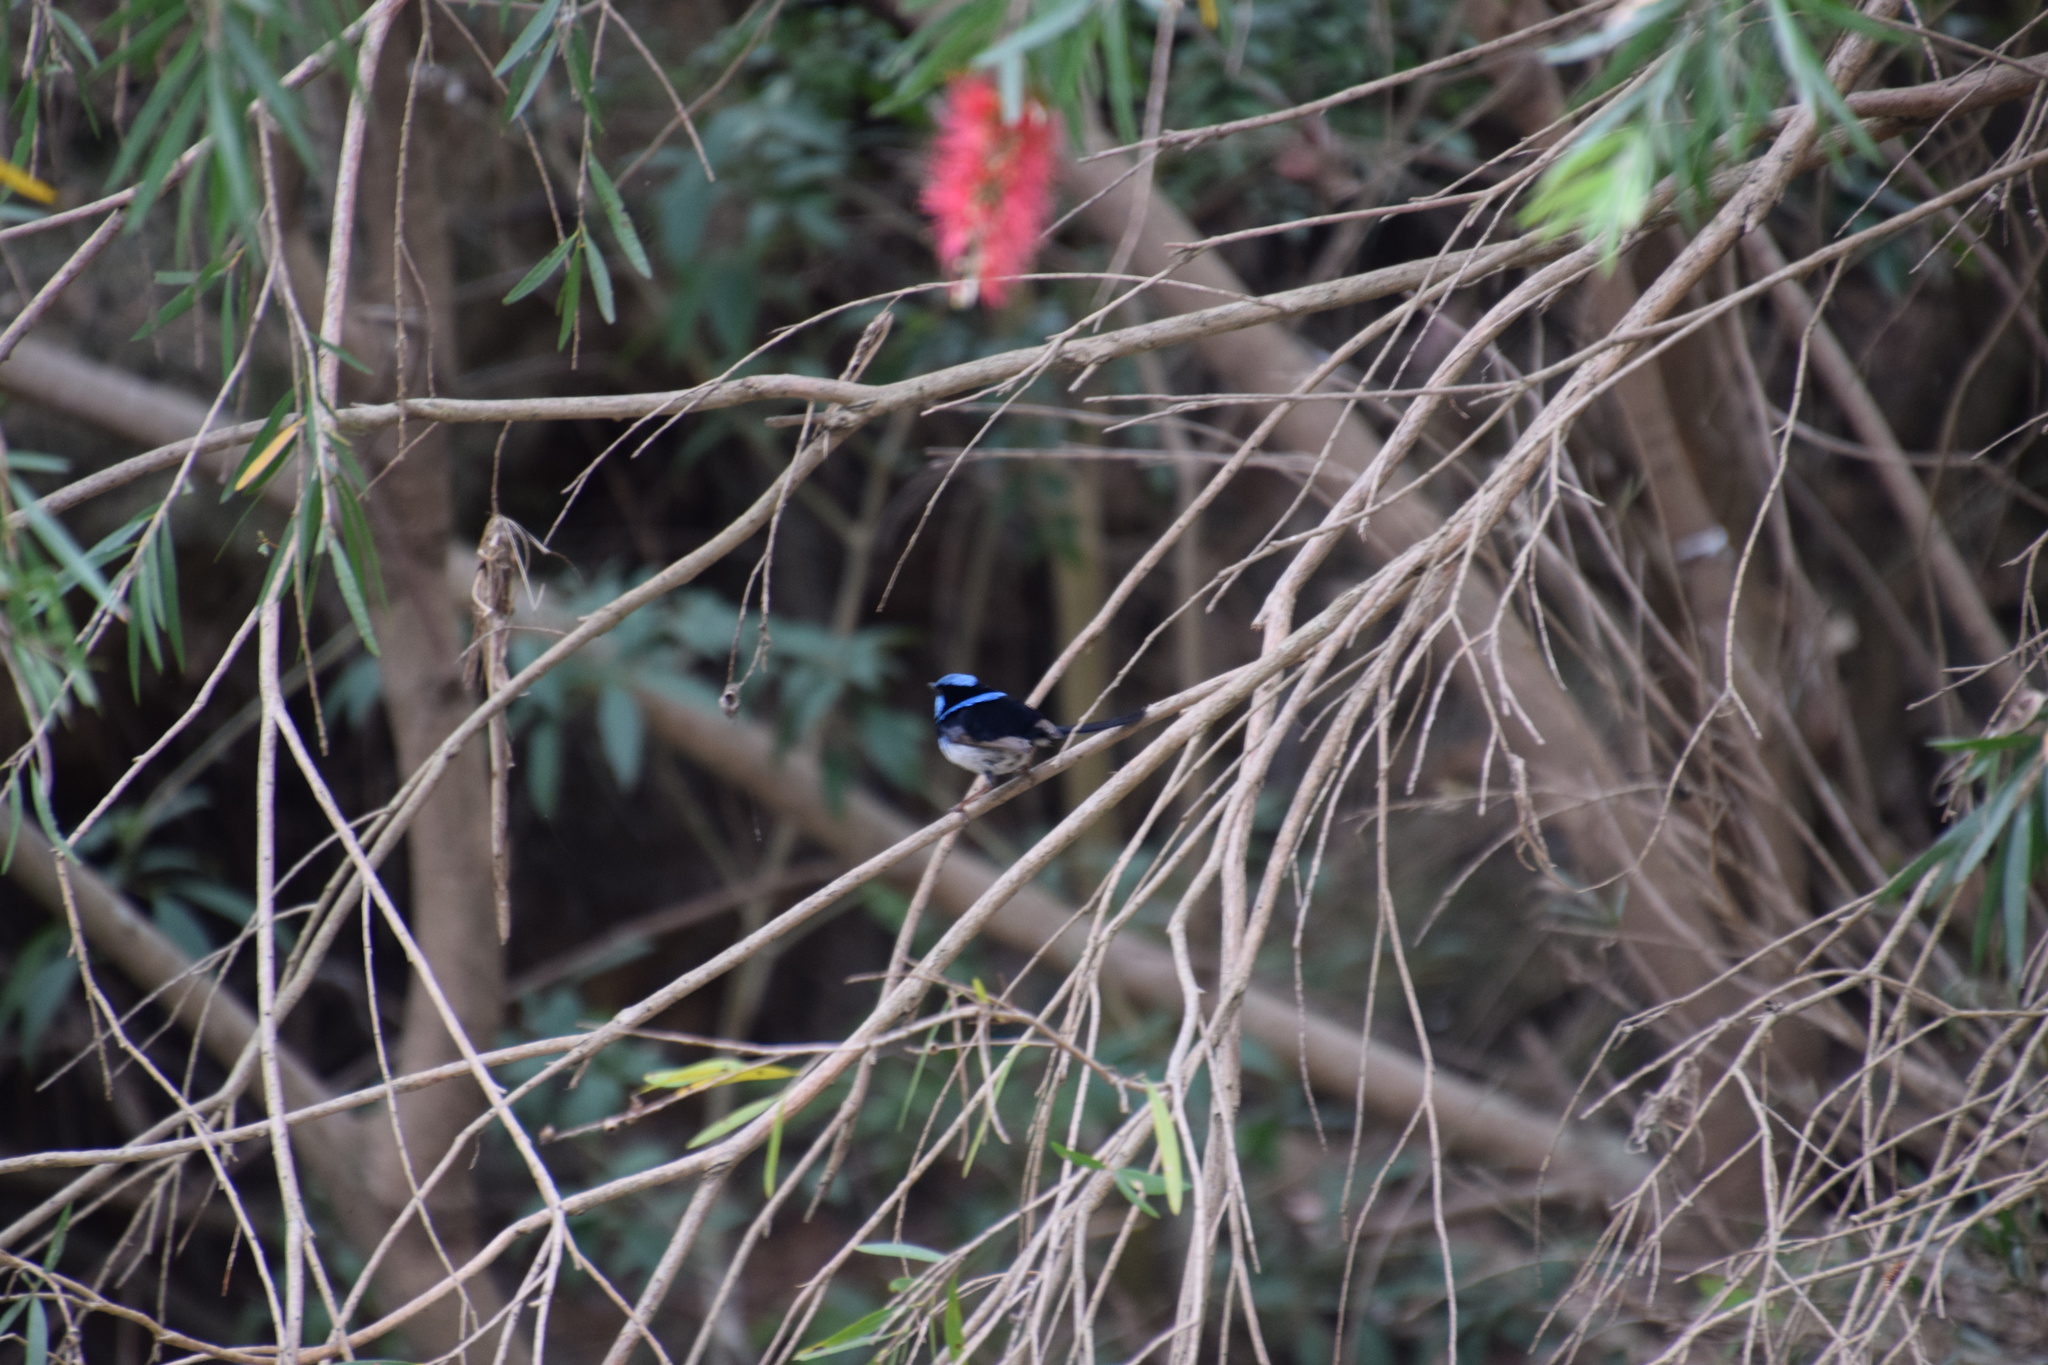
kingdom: Animalia
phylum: Chordata
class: Aves
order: Passeriformes
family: Maluridae
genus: Malurus
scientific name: Malurus cyaneus
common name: Superb fairywren
